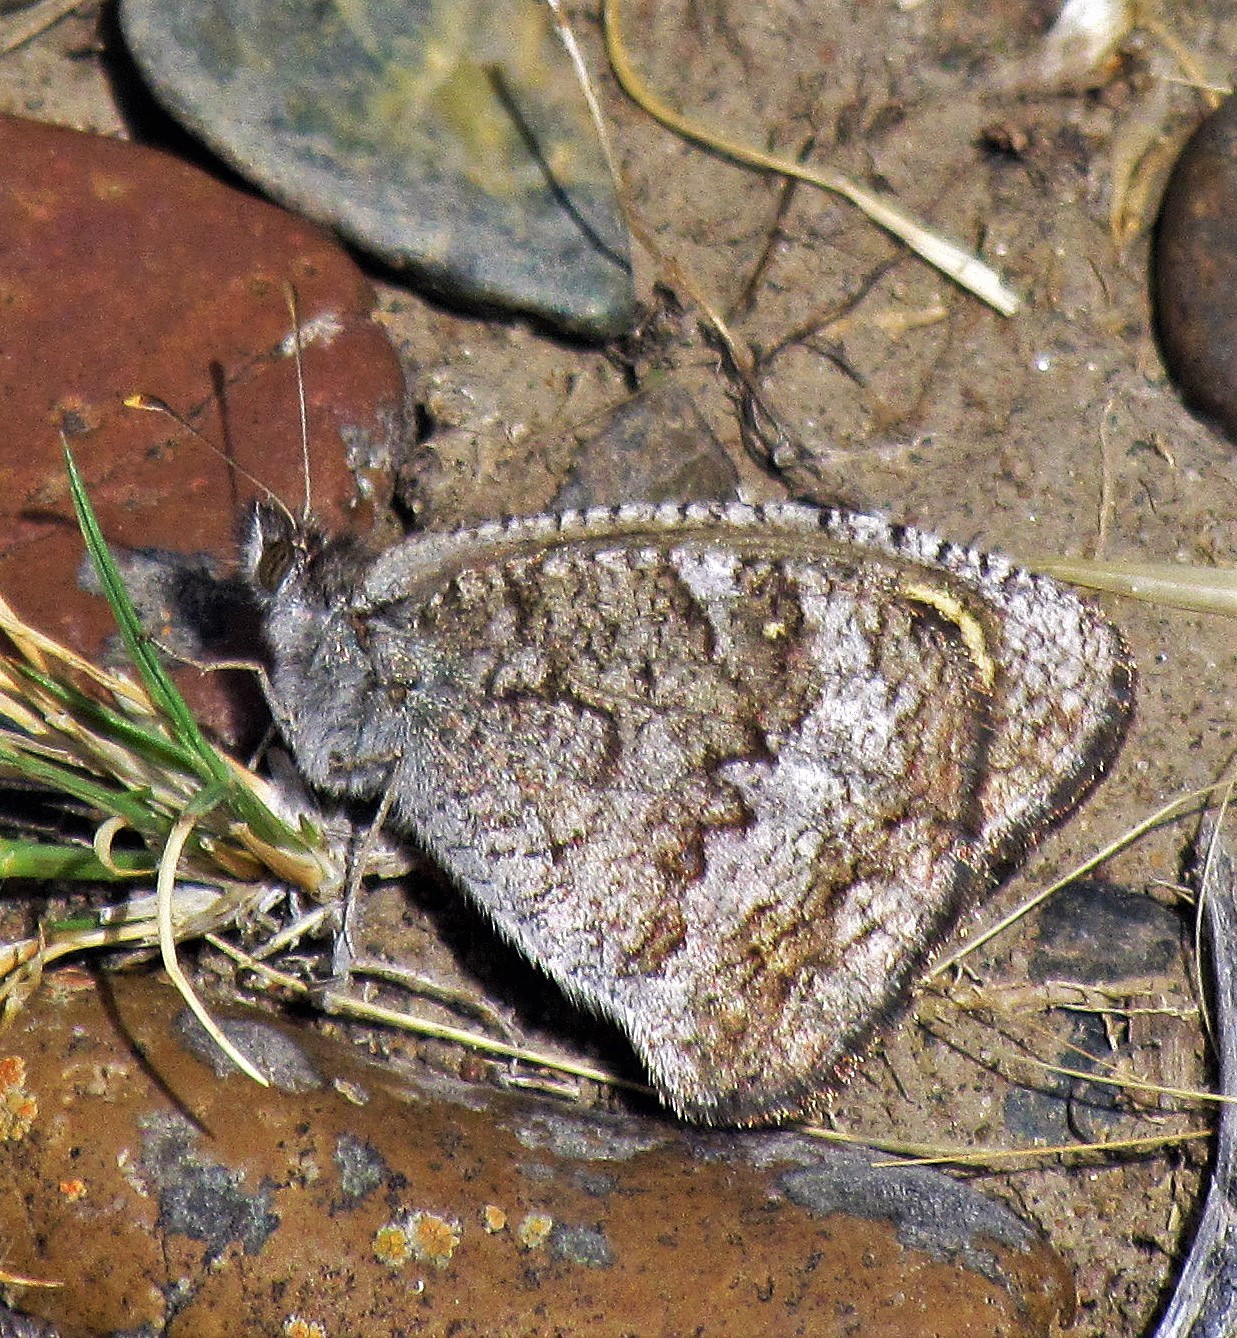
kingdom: Animalia
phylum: Arthropoda
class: Insecta
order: Lepidoptera
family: Nymphalidae
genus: Pampasatyrus
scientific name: Pampasatyrus yacantoensis
